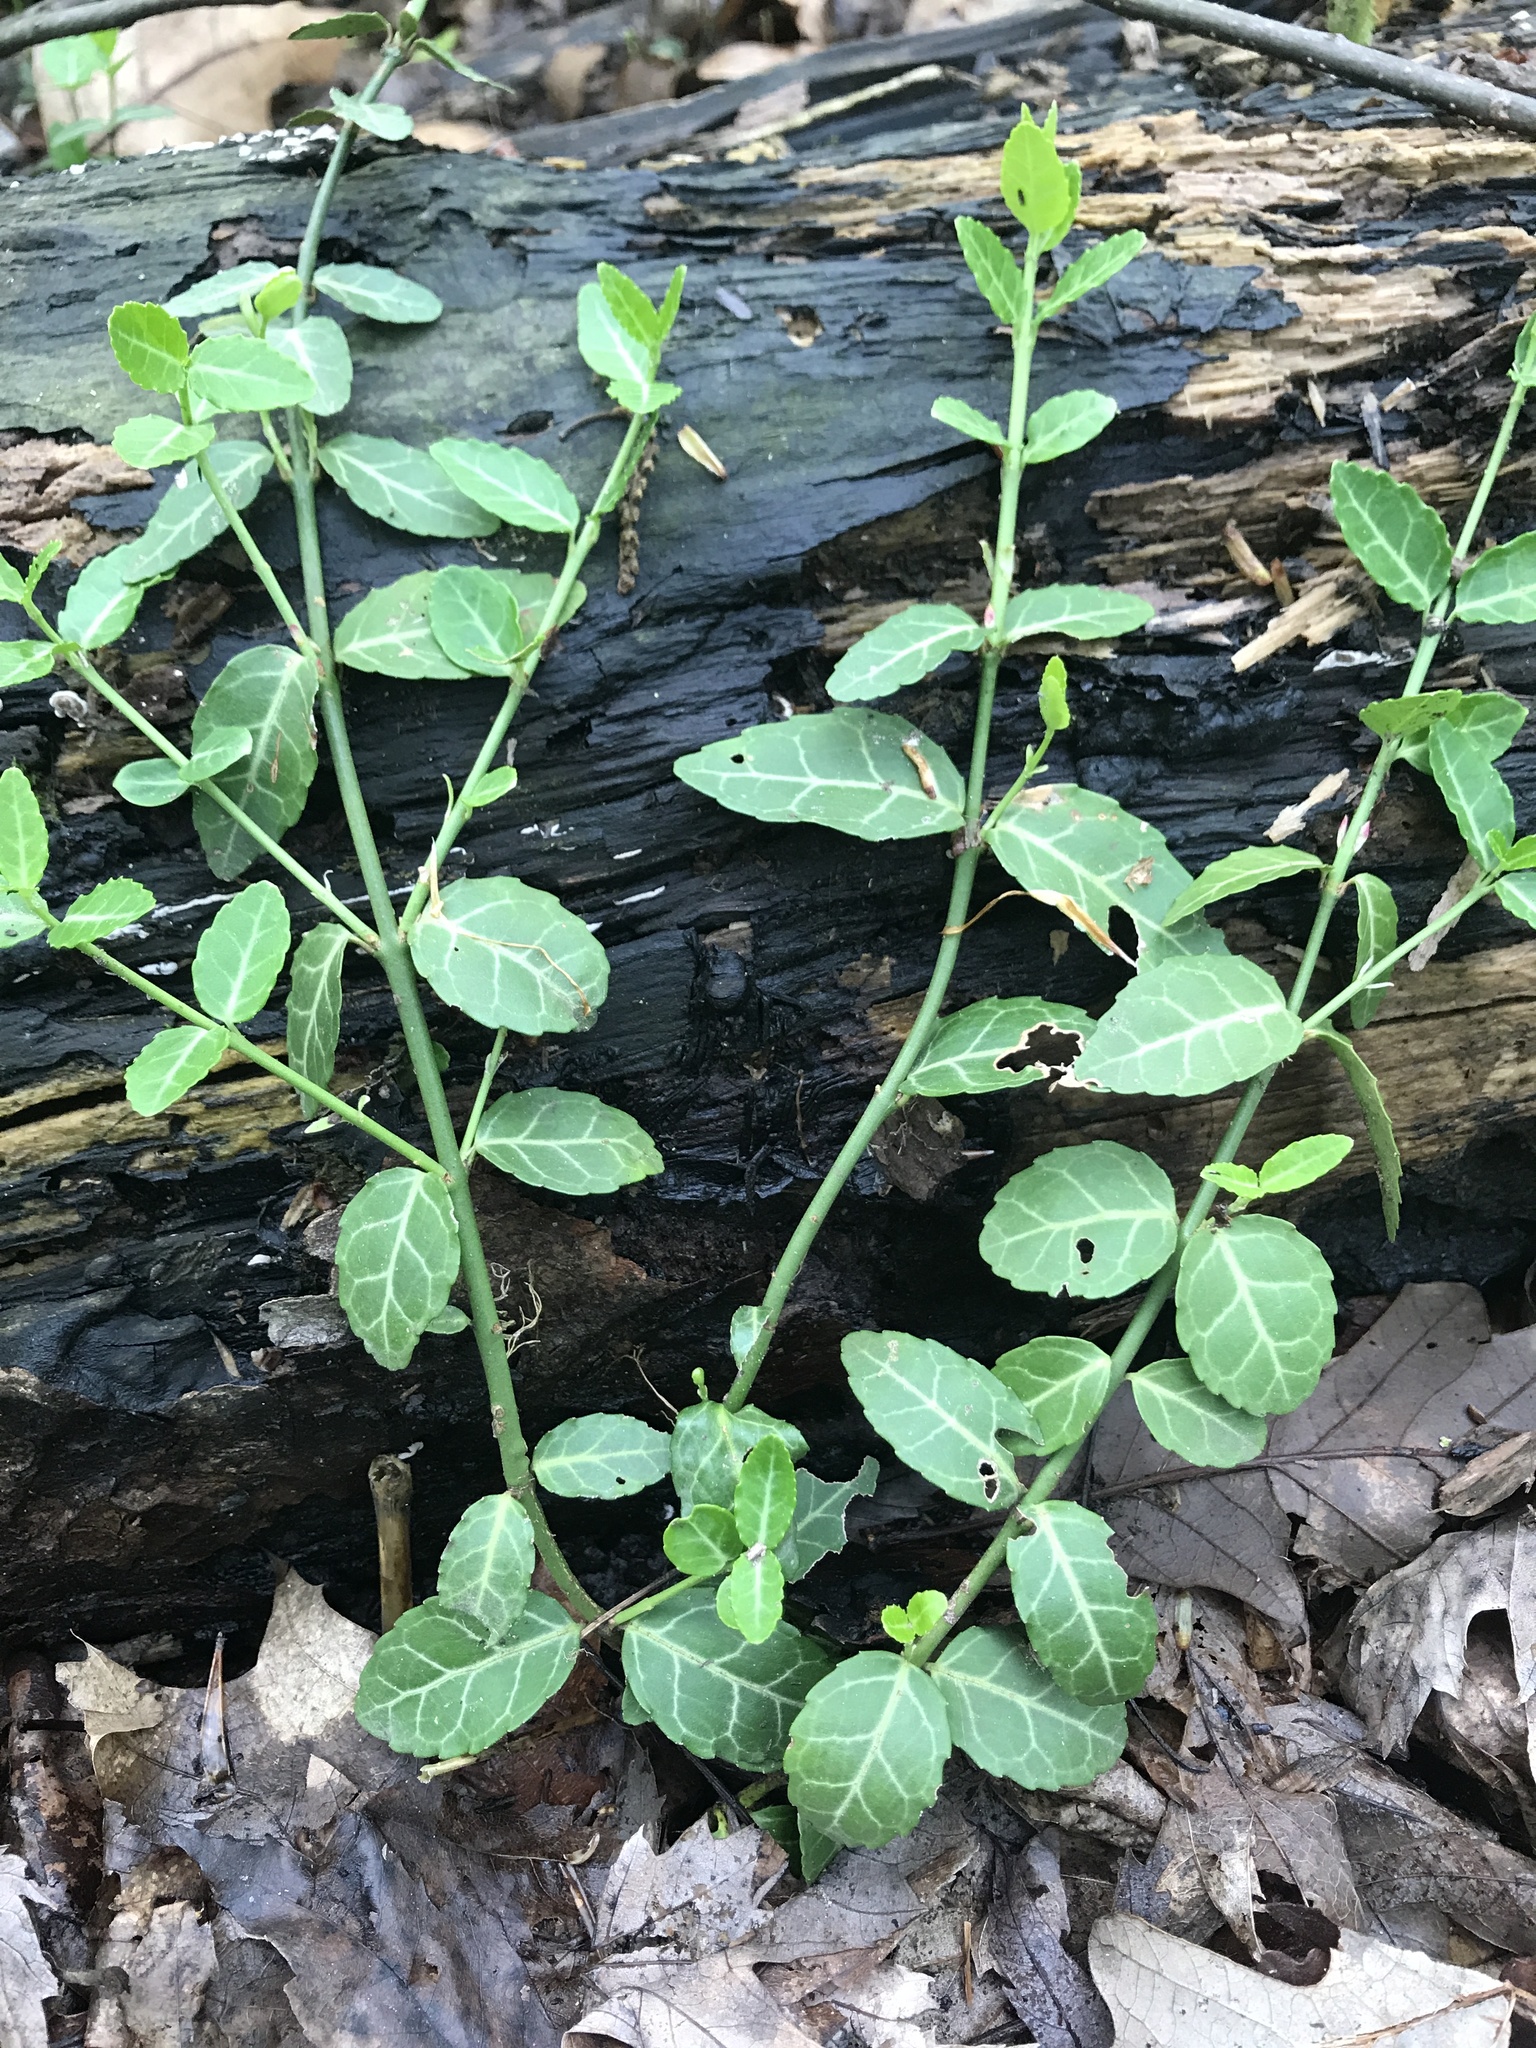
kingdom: Plantae
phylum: Tracheophyta
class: Magnoliopsida
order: Celastrales
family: Celastraceae
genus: Euonymus
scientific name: Euonymus fortunei
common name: Climbing euonymus
